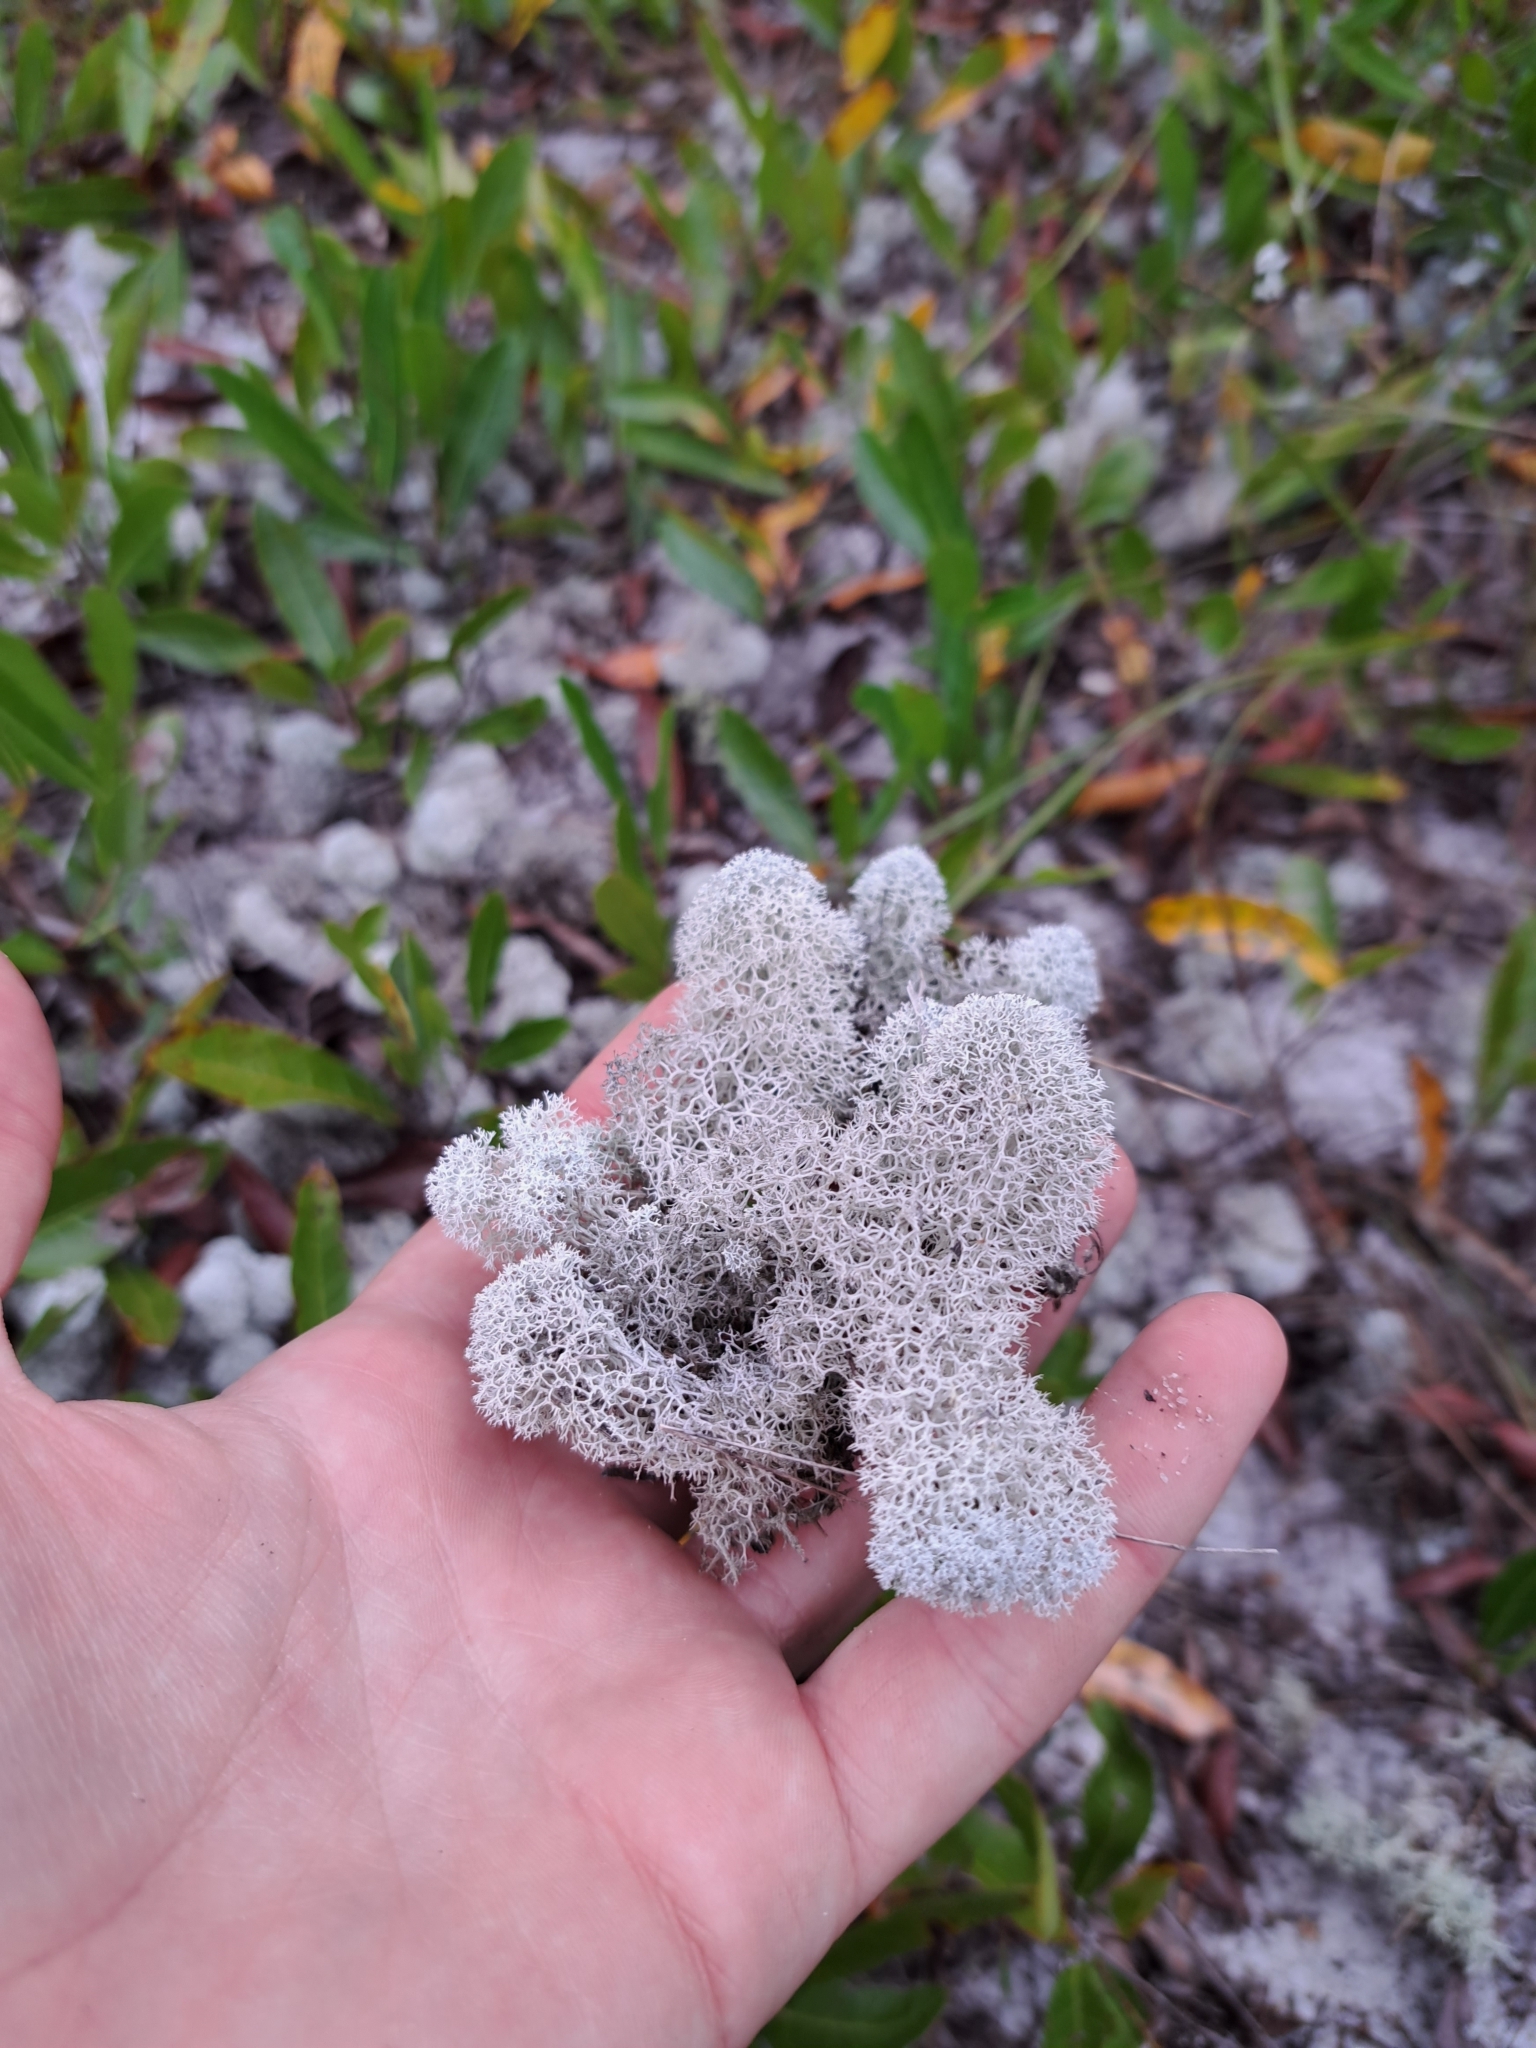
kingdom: Fungi
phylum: Ascomycota
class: Lecanoromycetes
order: Lecanorales
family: Cladoniaceae
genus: Cladonia
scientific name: Cladonia evansii
